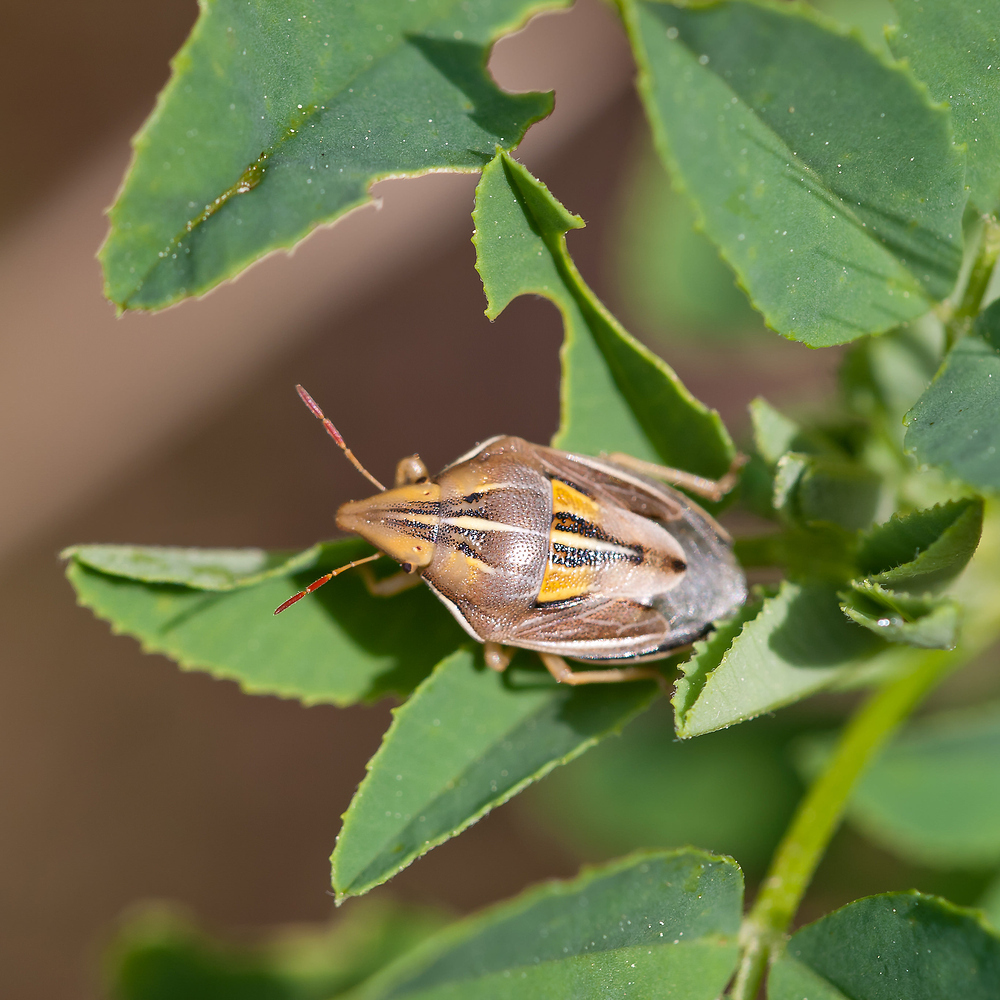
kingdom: Animalia
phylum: Arthropoda
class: Insecta
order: Hemiptera
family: Pentatomidae
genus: Aelia
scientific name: Aelia rostrata
